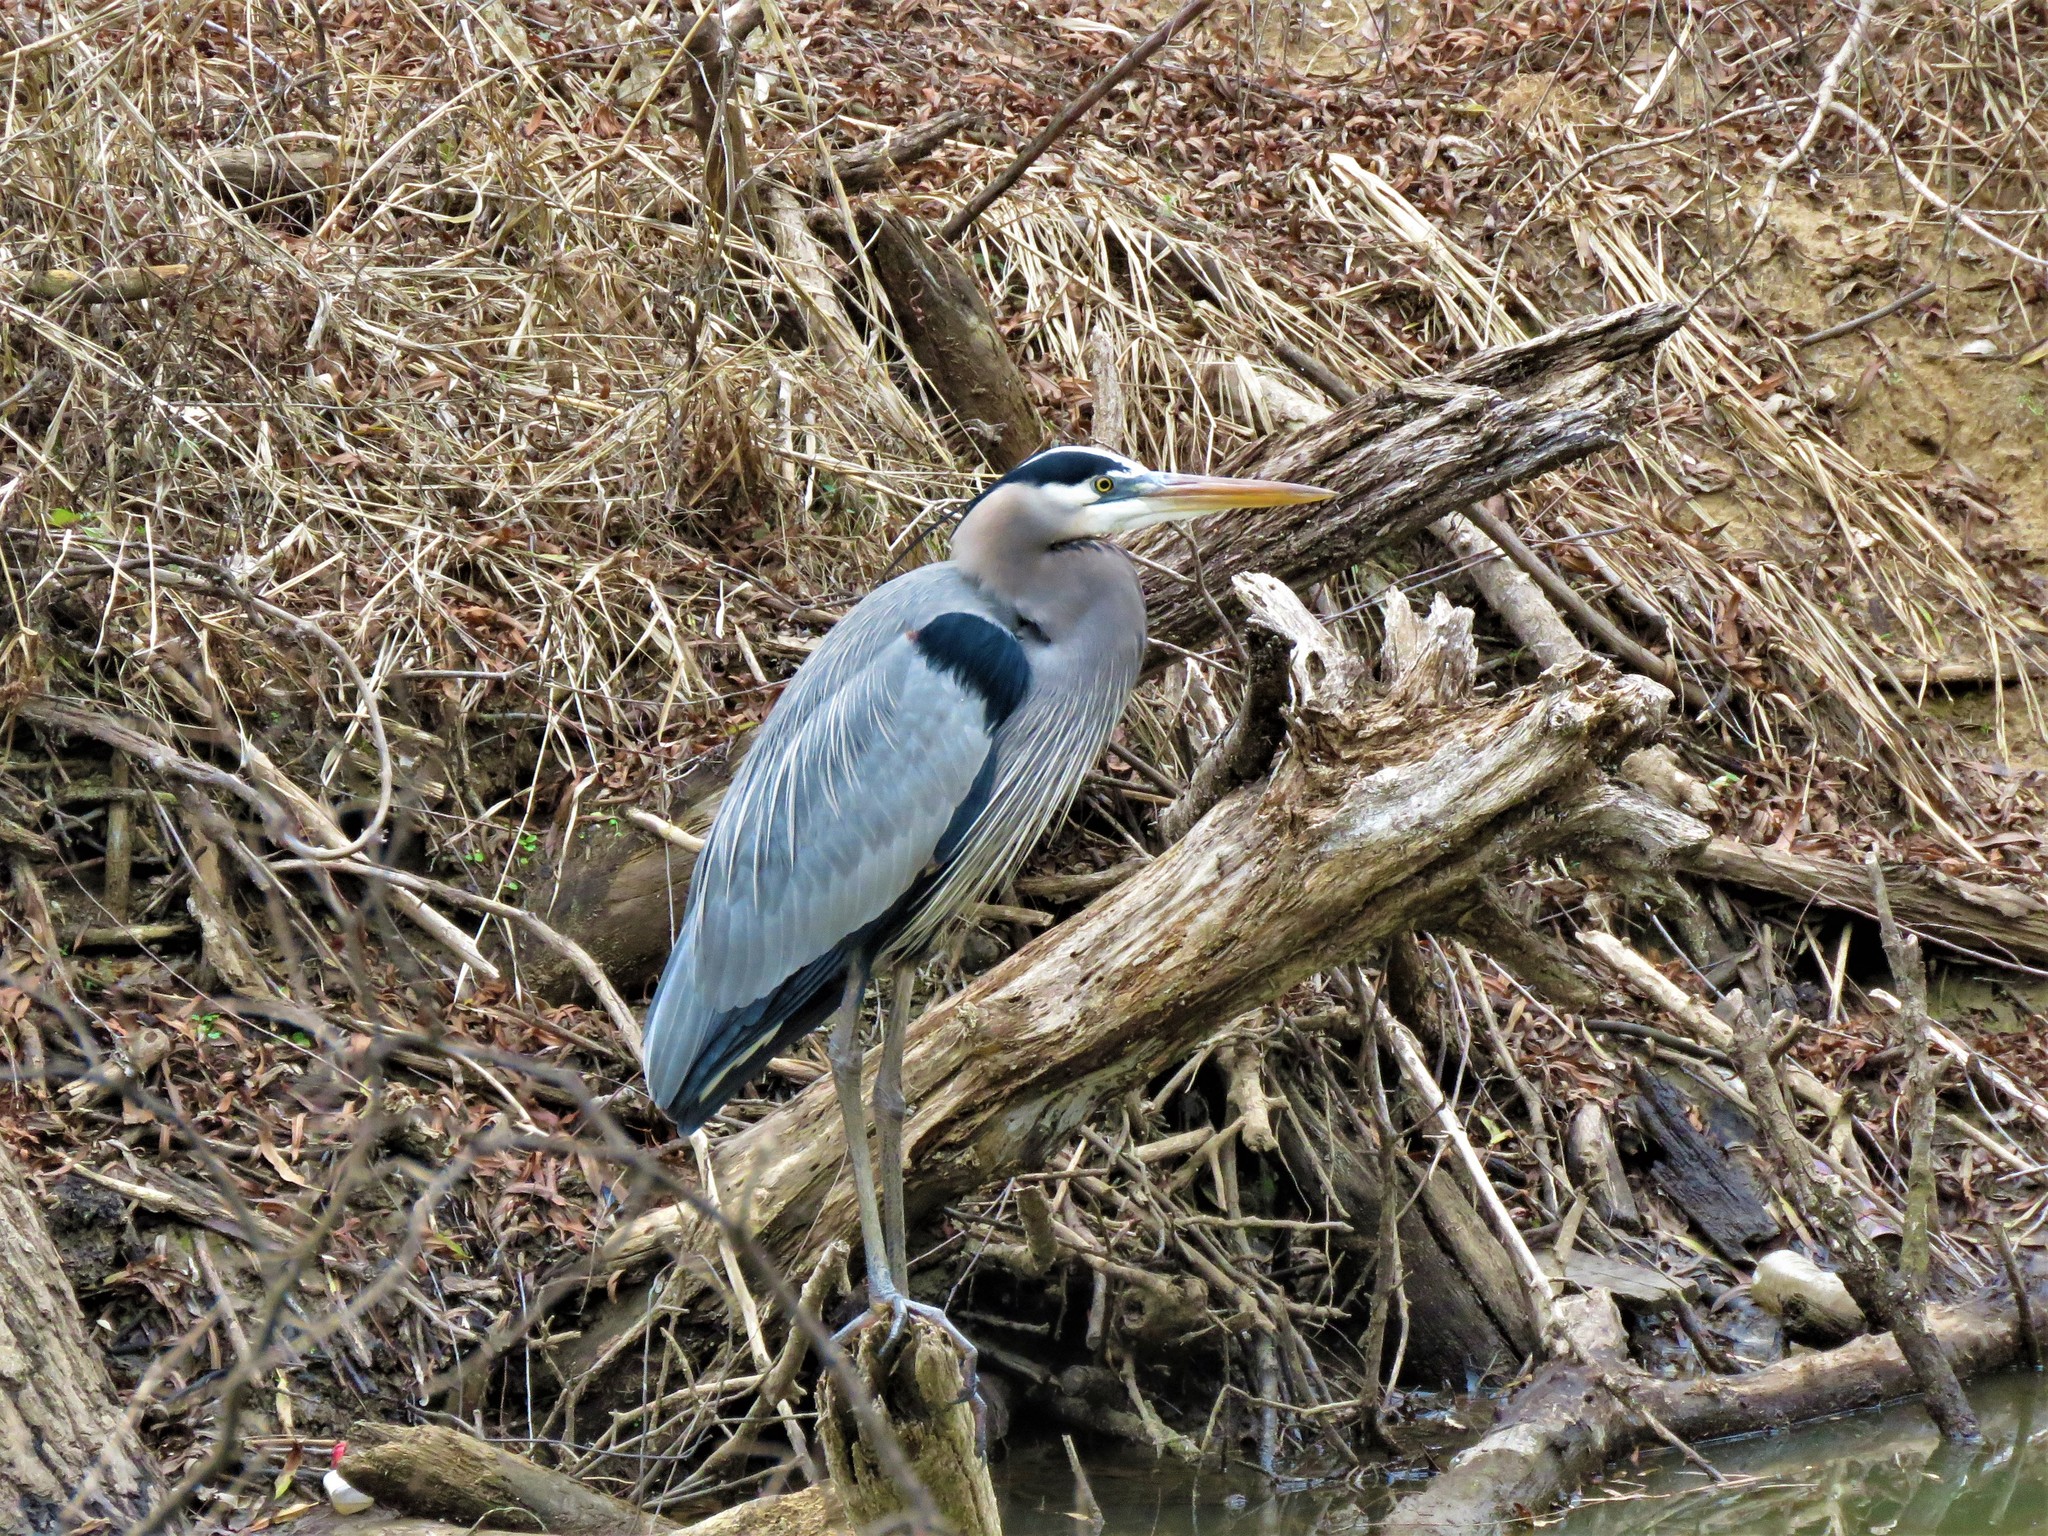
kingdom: Animalia
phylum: Chordata
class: Aves
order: Pelecaniformes
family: Ardeidae
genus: Ardea
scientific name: Ardea herodias
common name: Great blue heron
